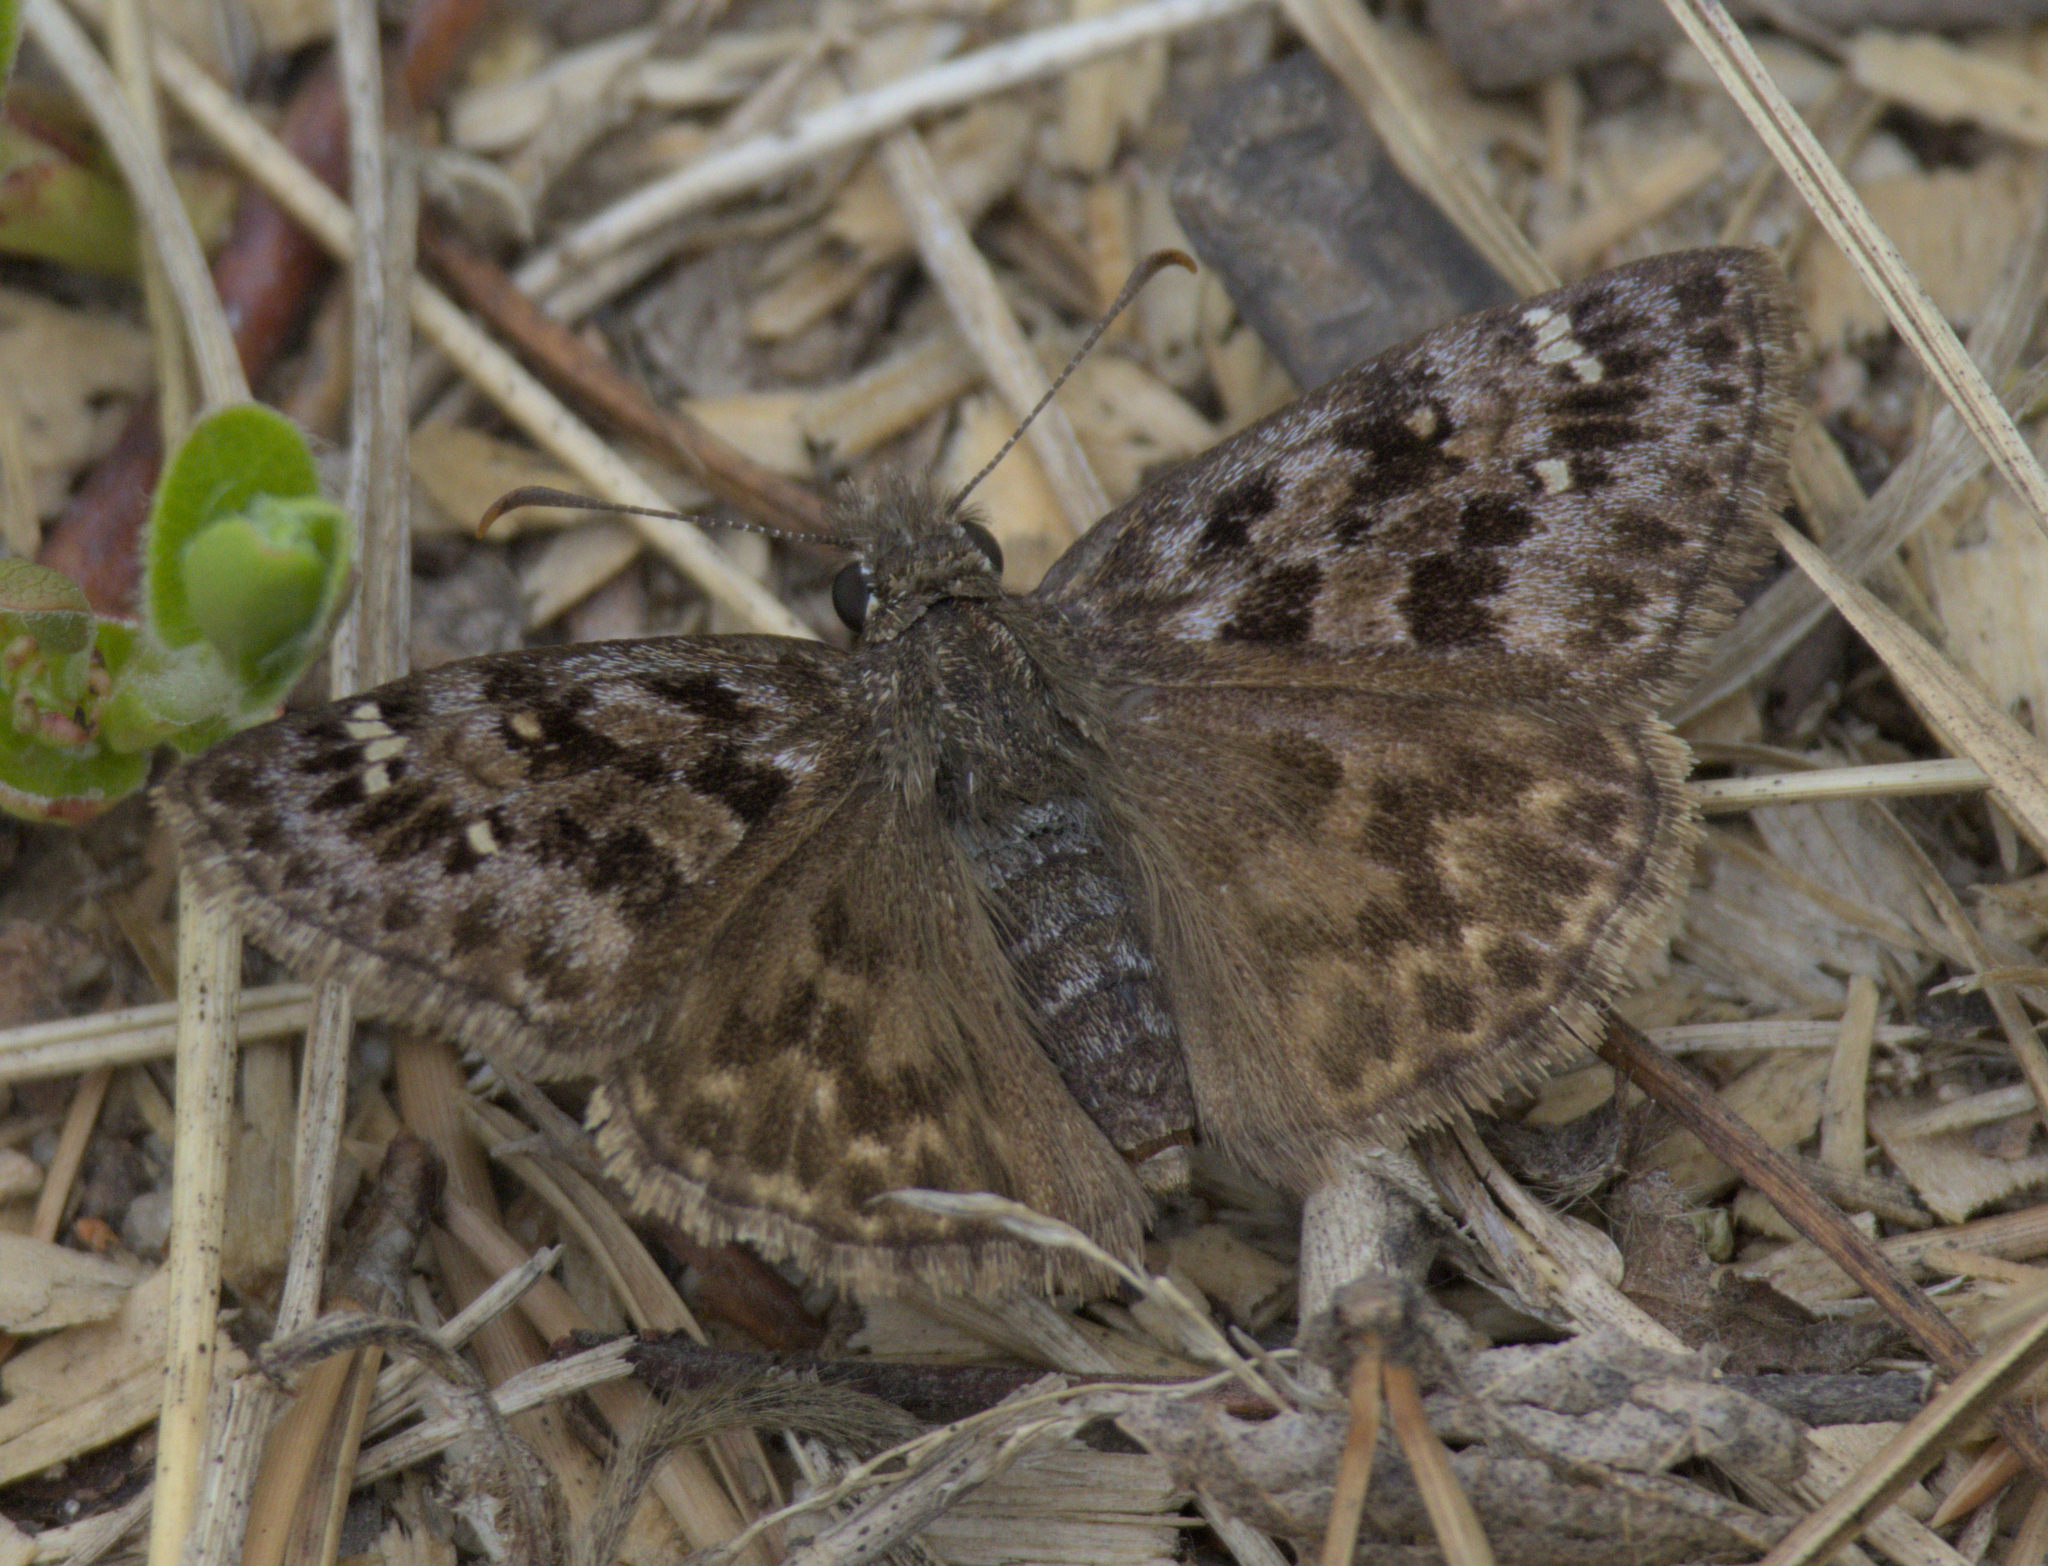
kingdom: Animalia
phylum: Arthropoda
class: Insecta
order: Lepidoptera
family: Hesperiidae
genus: Erynnis
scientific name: Erynnis martialis
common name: Mottled duskywing
